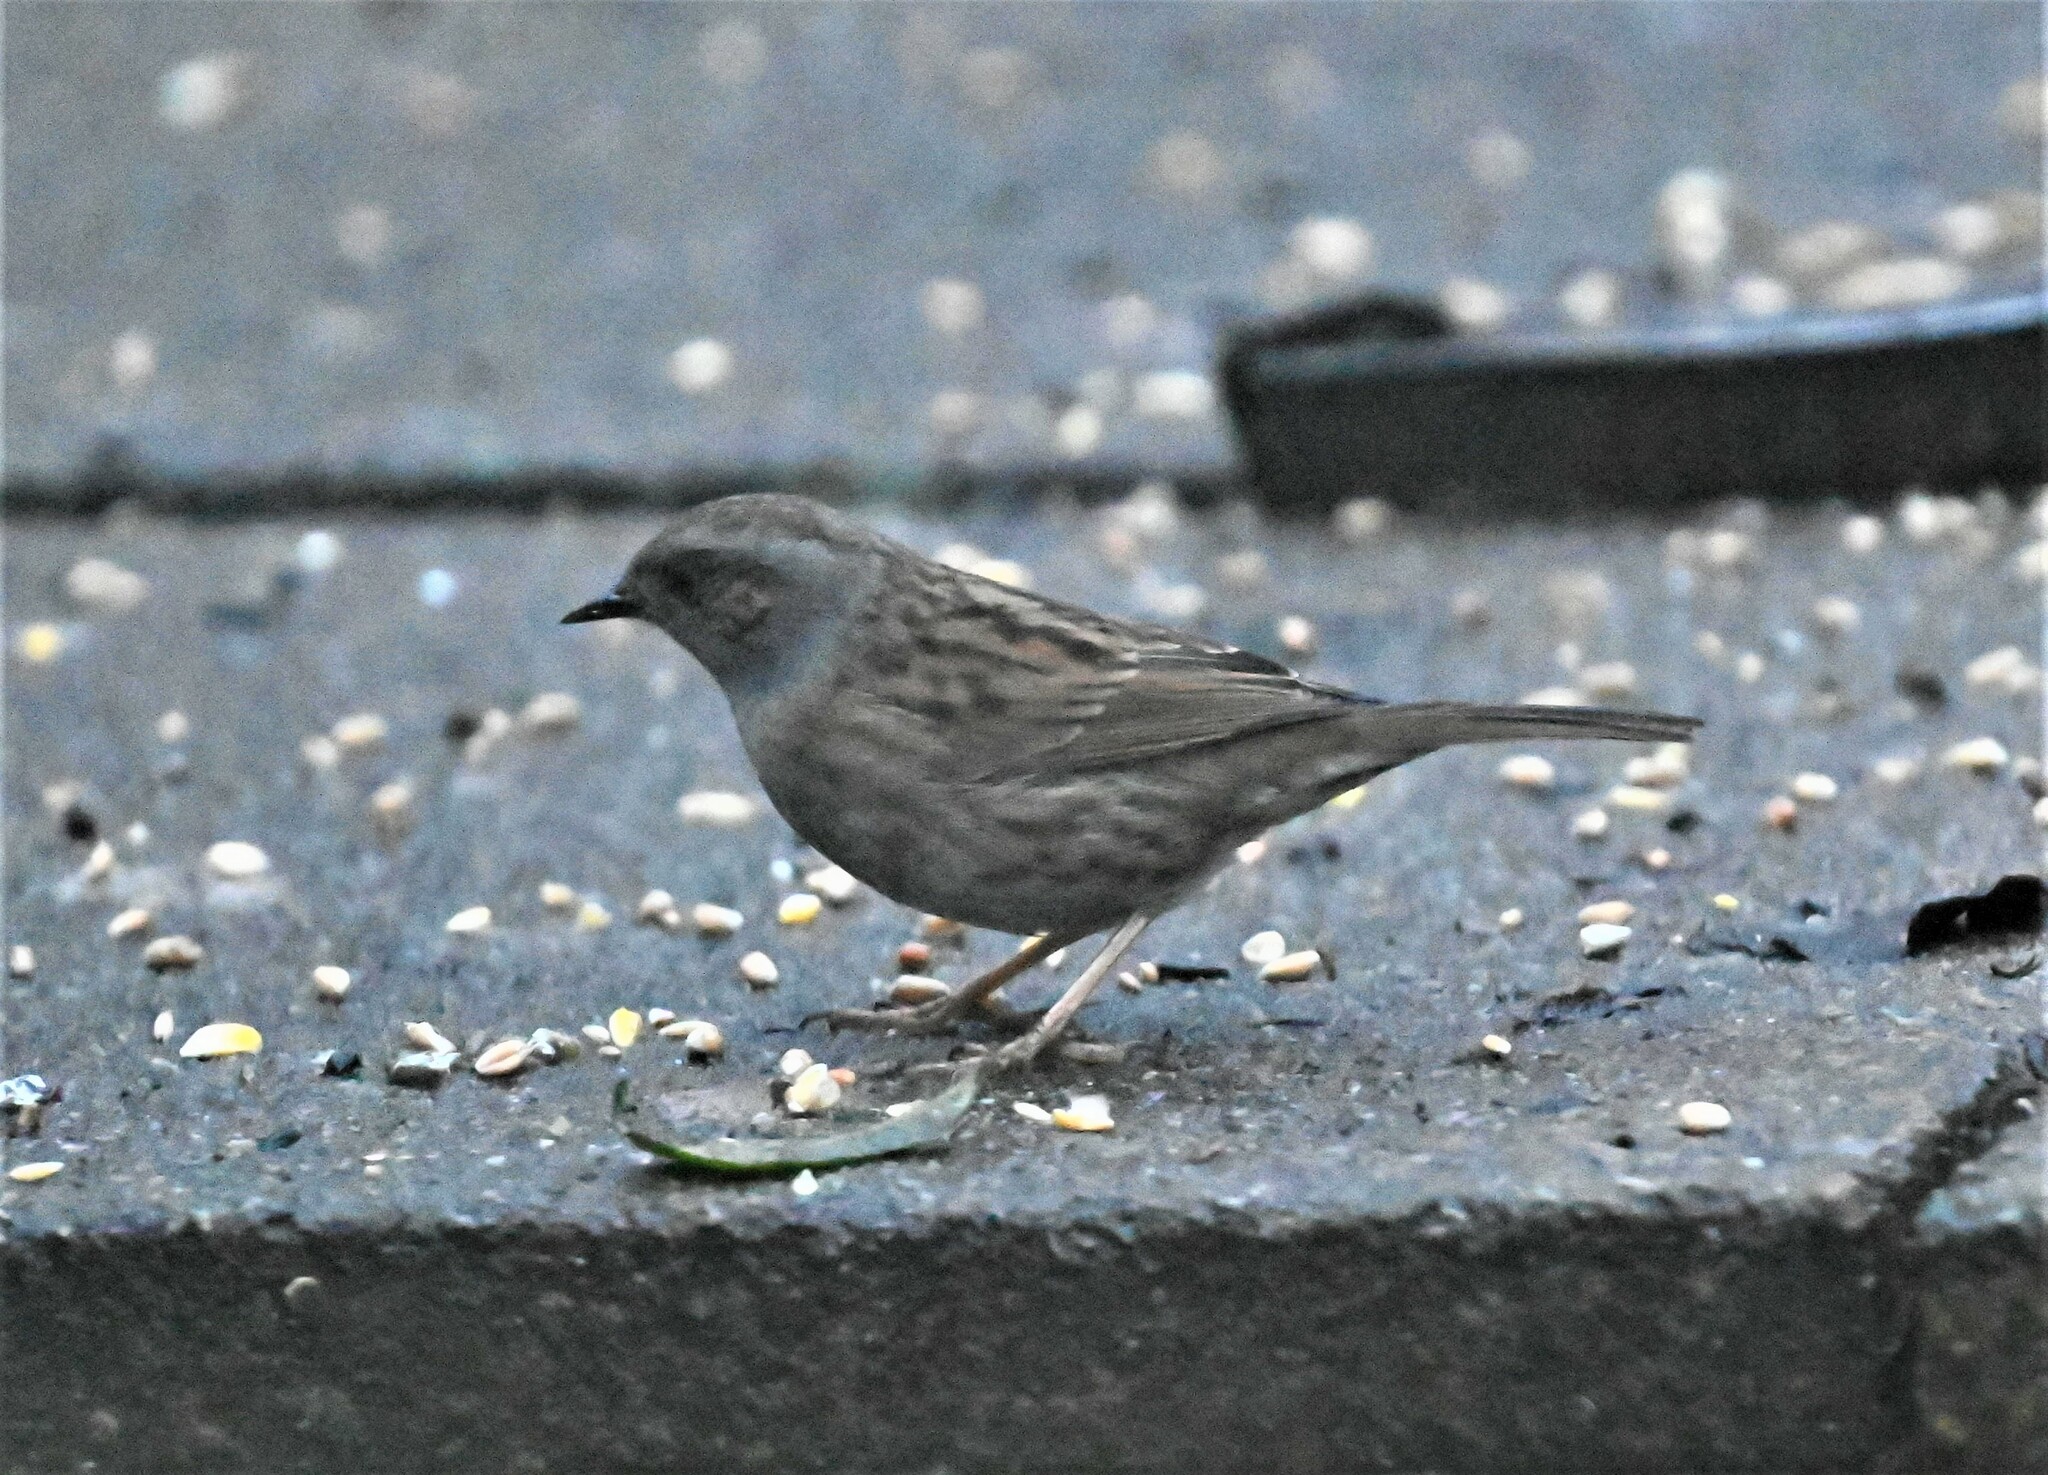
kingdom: Animalia
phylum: Chordata
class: Aves
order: Passeriformes
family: Prunellidae
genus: Prunella
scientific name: Prunella modularis
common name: Dunnock
